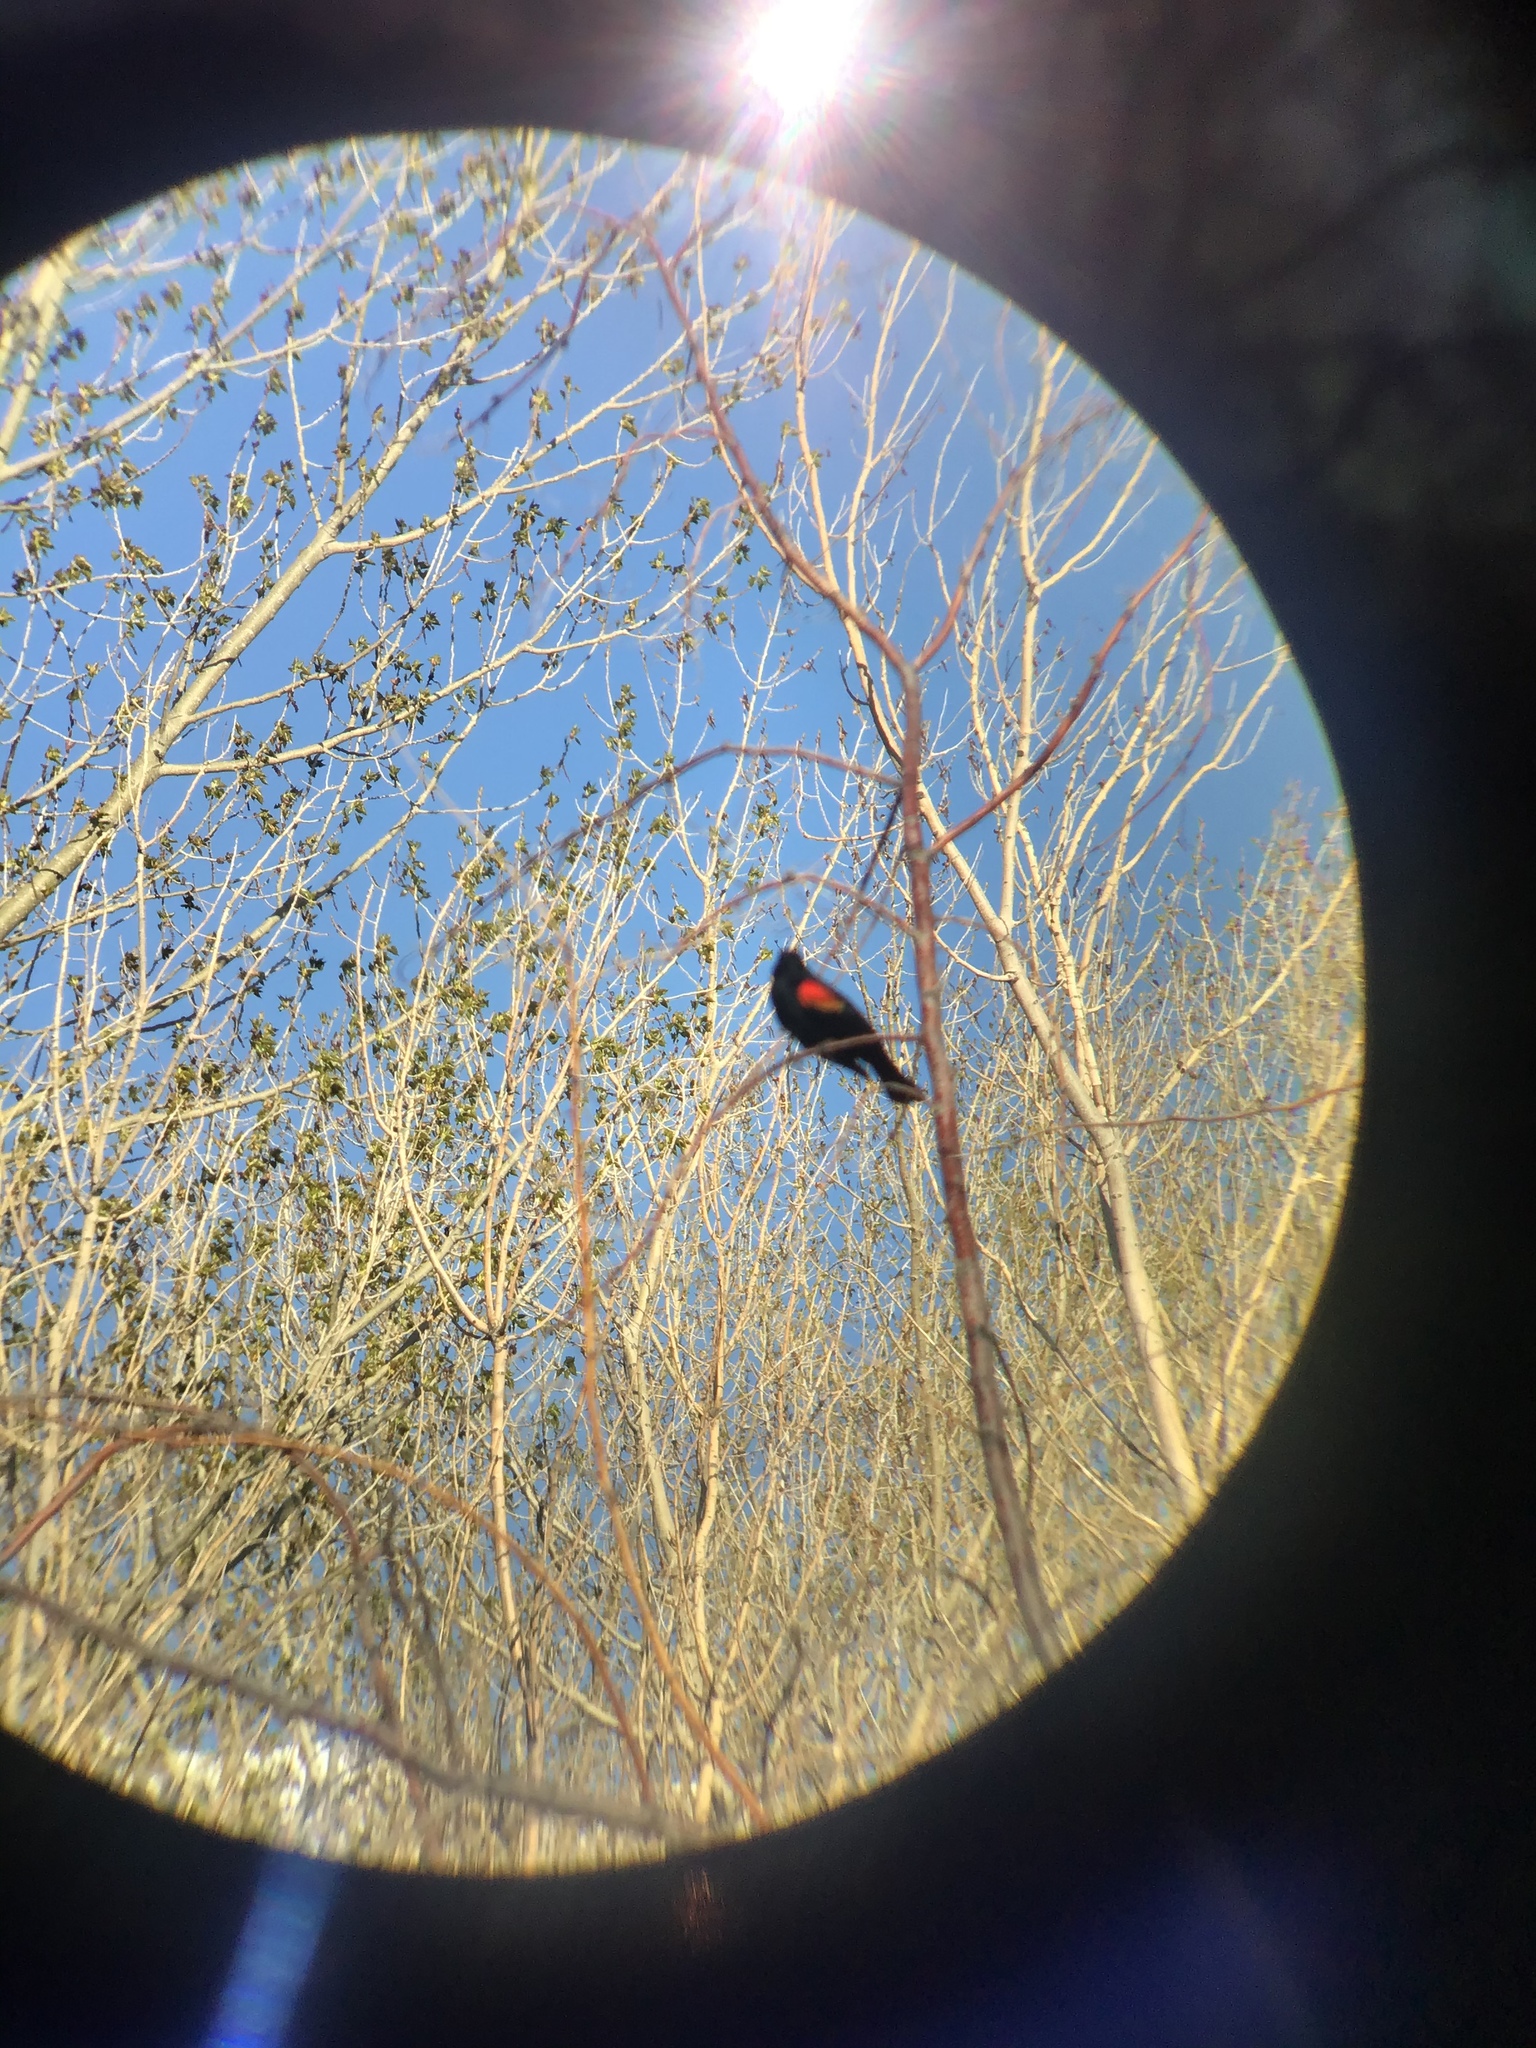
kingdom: Animalia
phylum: Chordata
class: Aves
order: Passeriformes
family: Icteridae
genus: Agelaius
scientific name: Agelaius phoeniceus
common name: Red-winged blackbird
